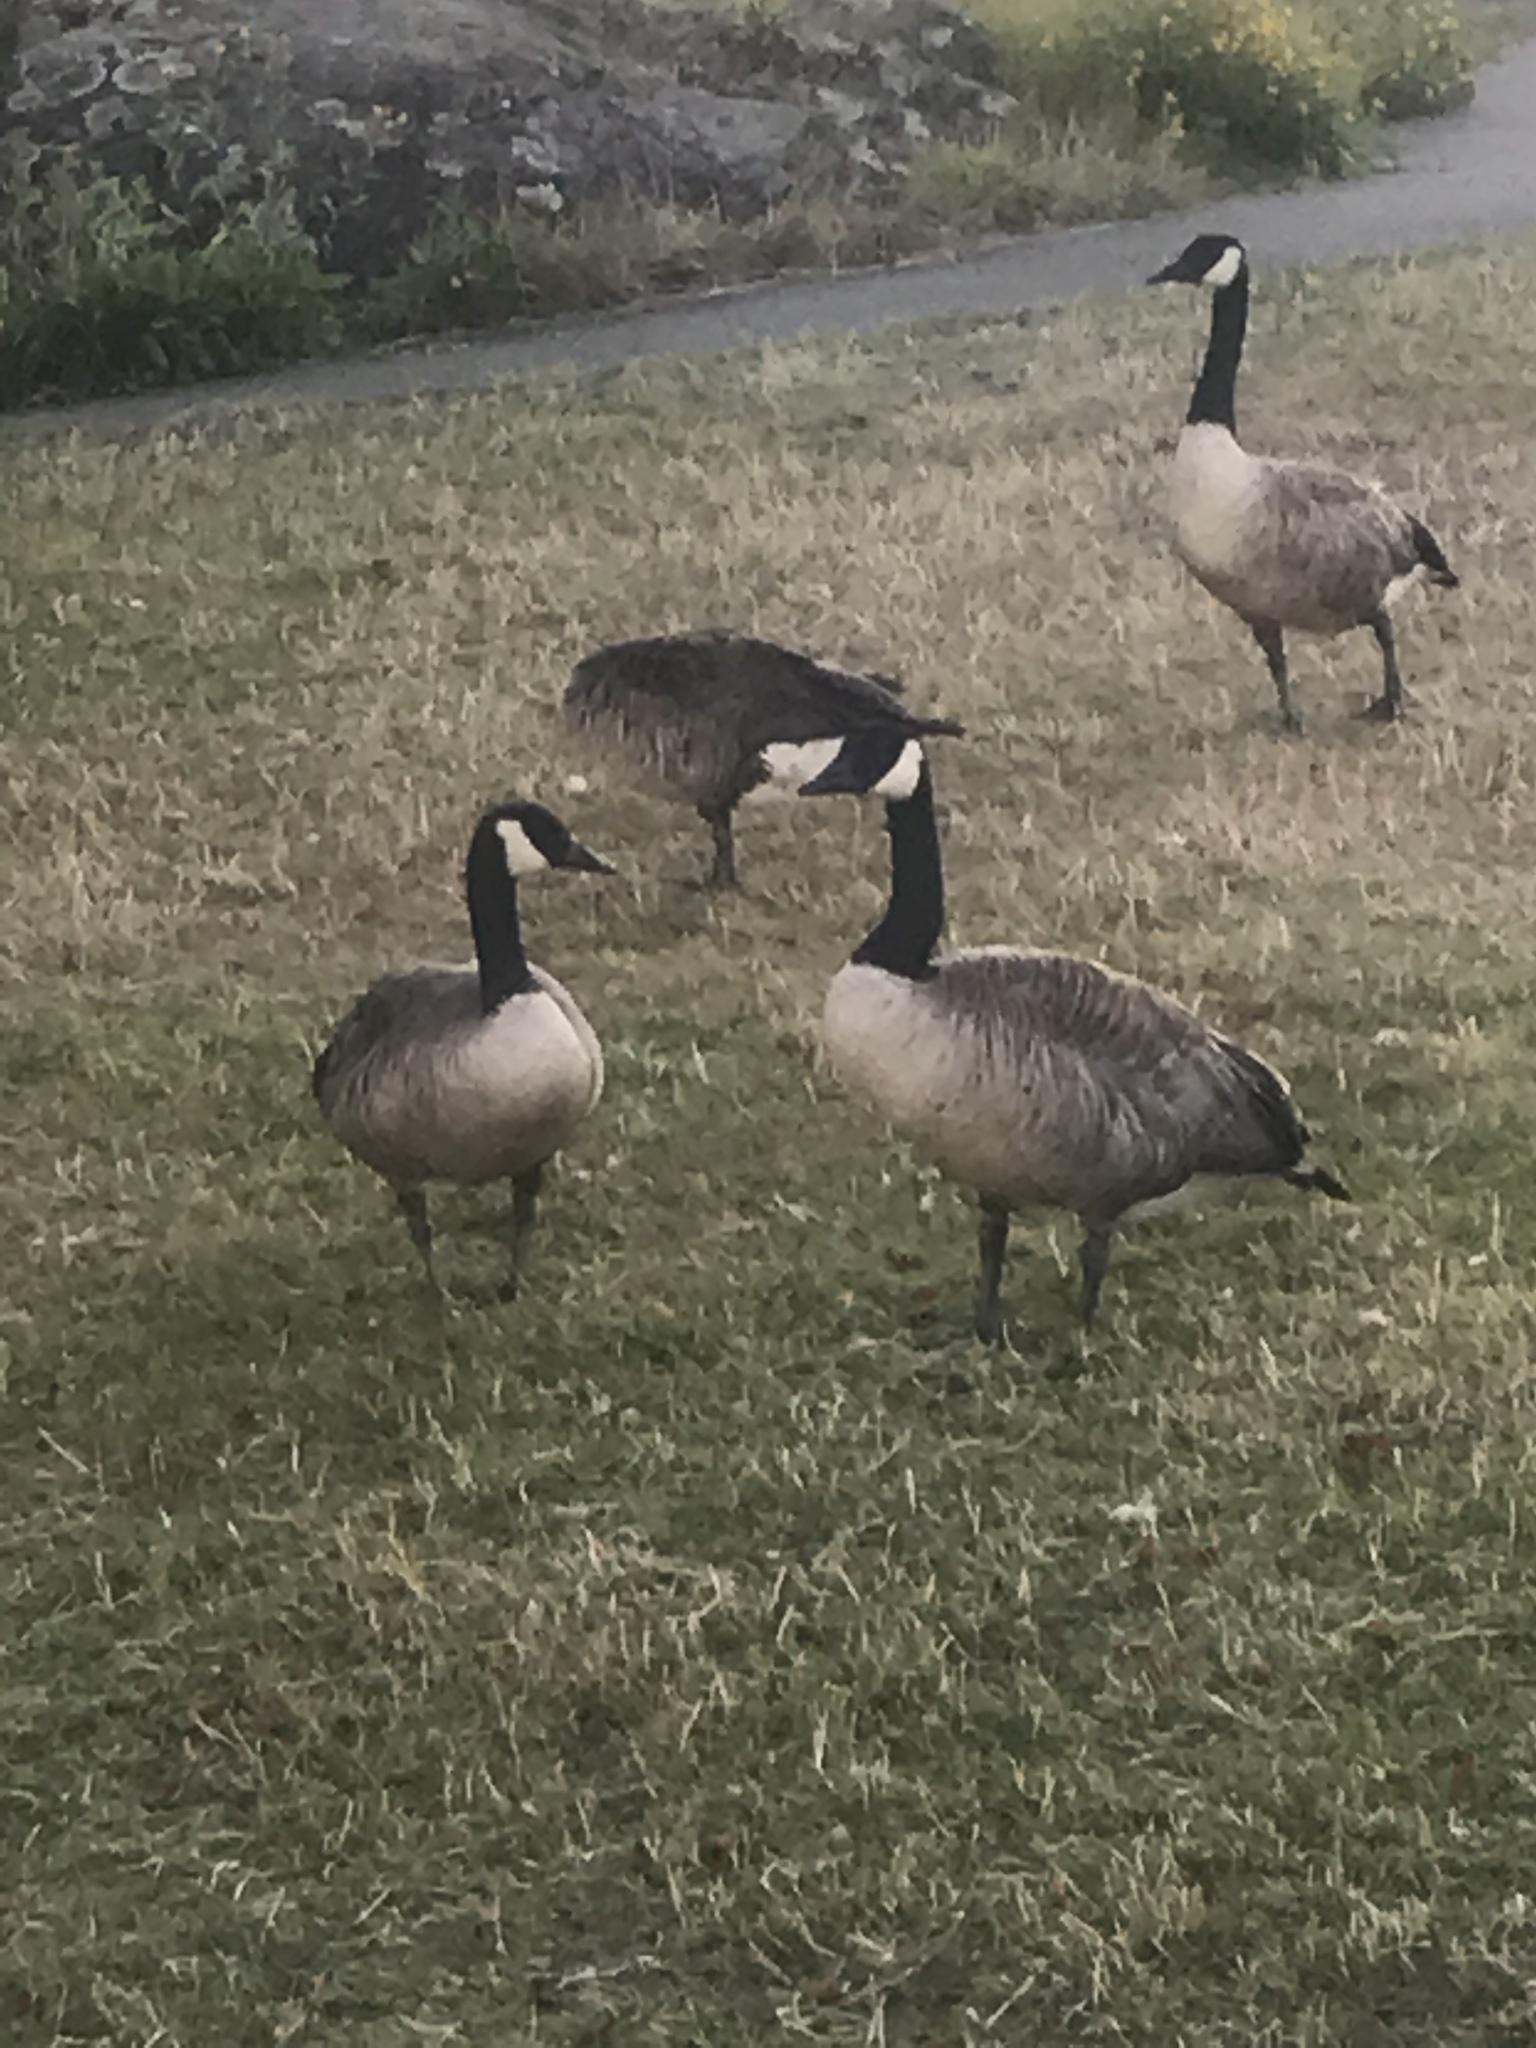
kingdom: Animalia
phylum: Chordata
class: Aves
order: Anseriformes
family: Anatidae
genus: Branta
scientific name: Branta canadensis
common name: Canada goose
